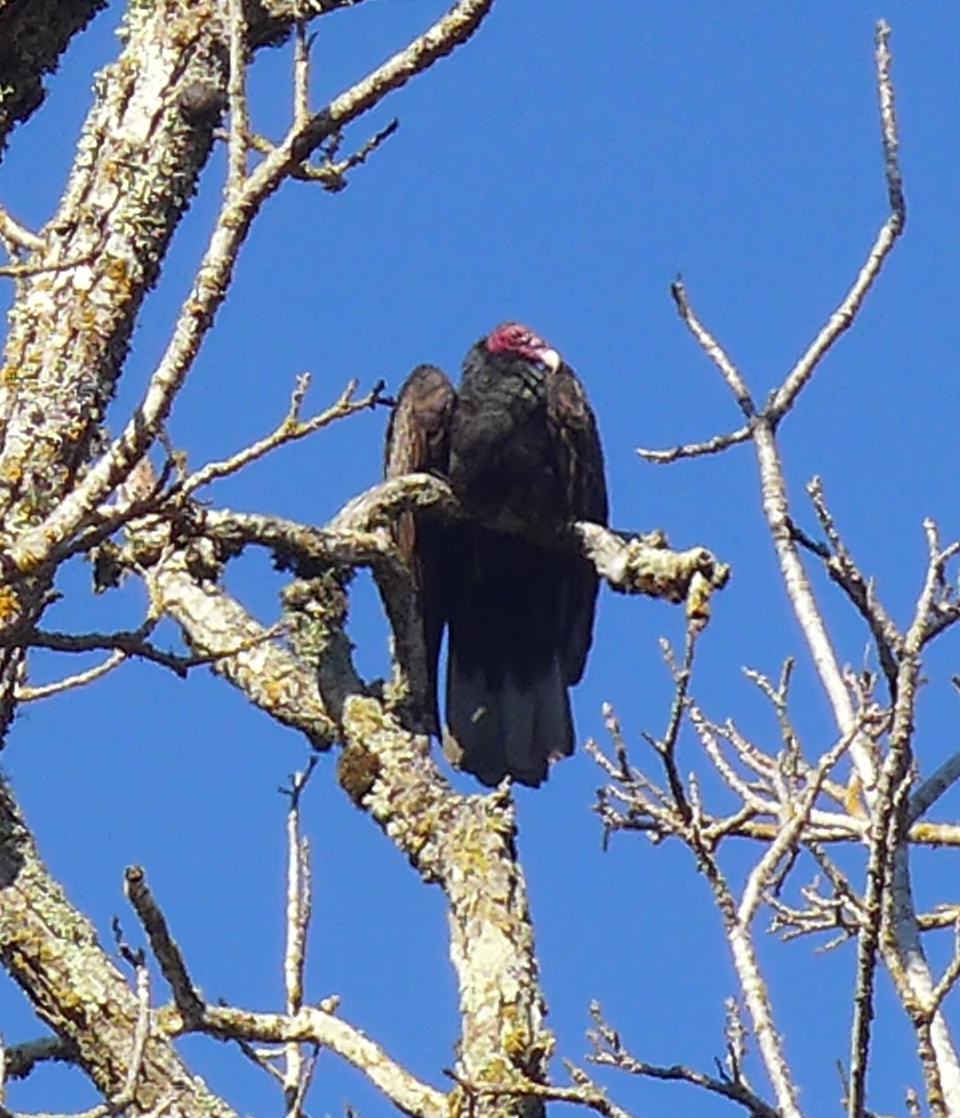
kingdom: Animalia
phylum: Chordata
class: Aves
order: Accipitriformes
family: Cathartidae
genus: Cathartes
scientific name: Cathartes aura
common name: Turkey vulture
